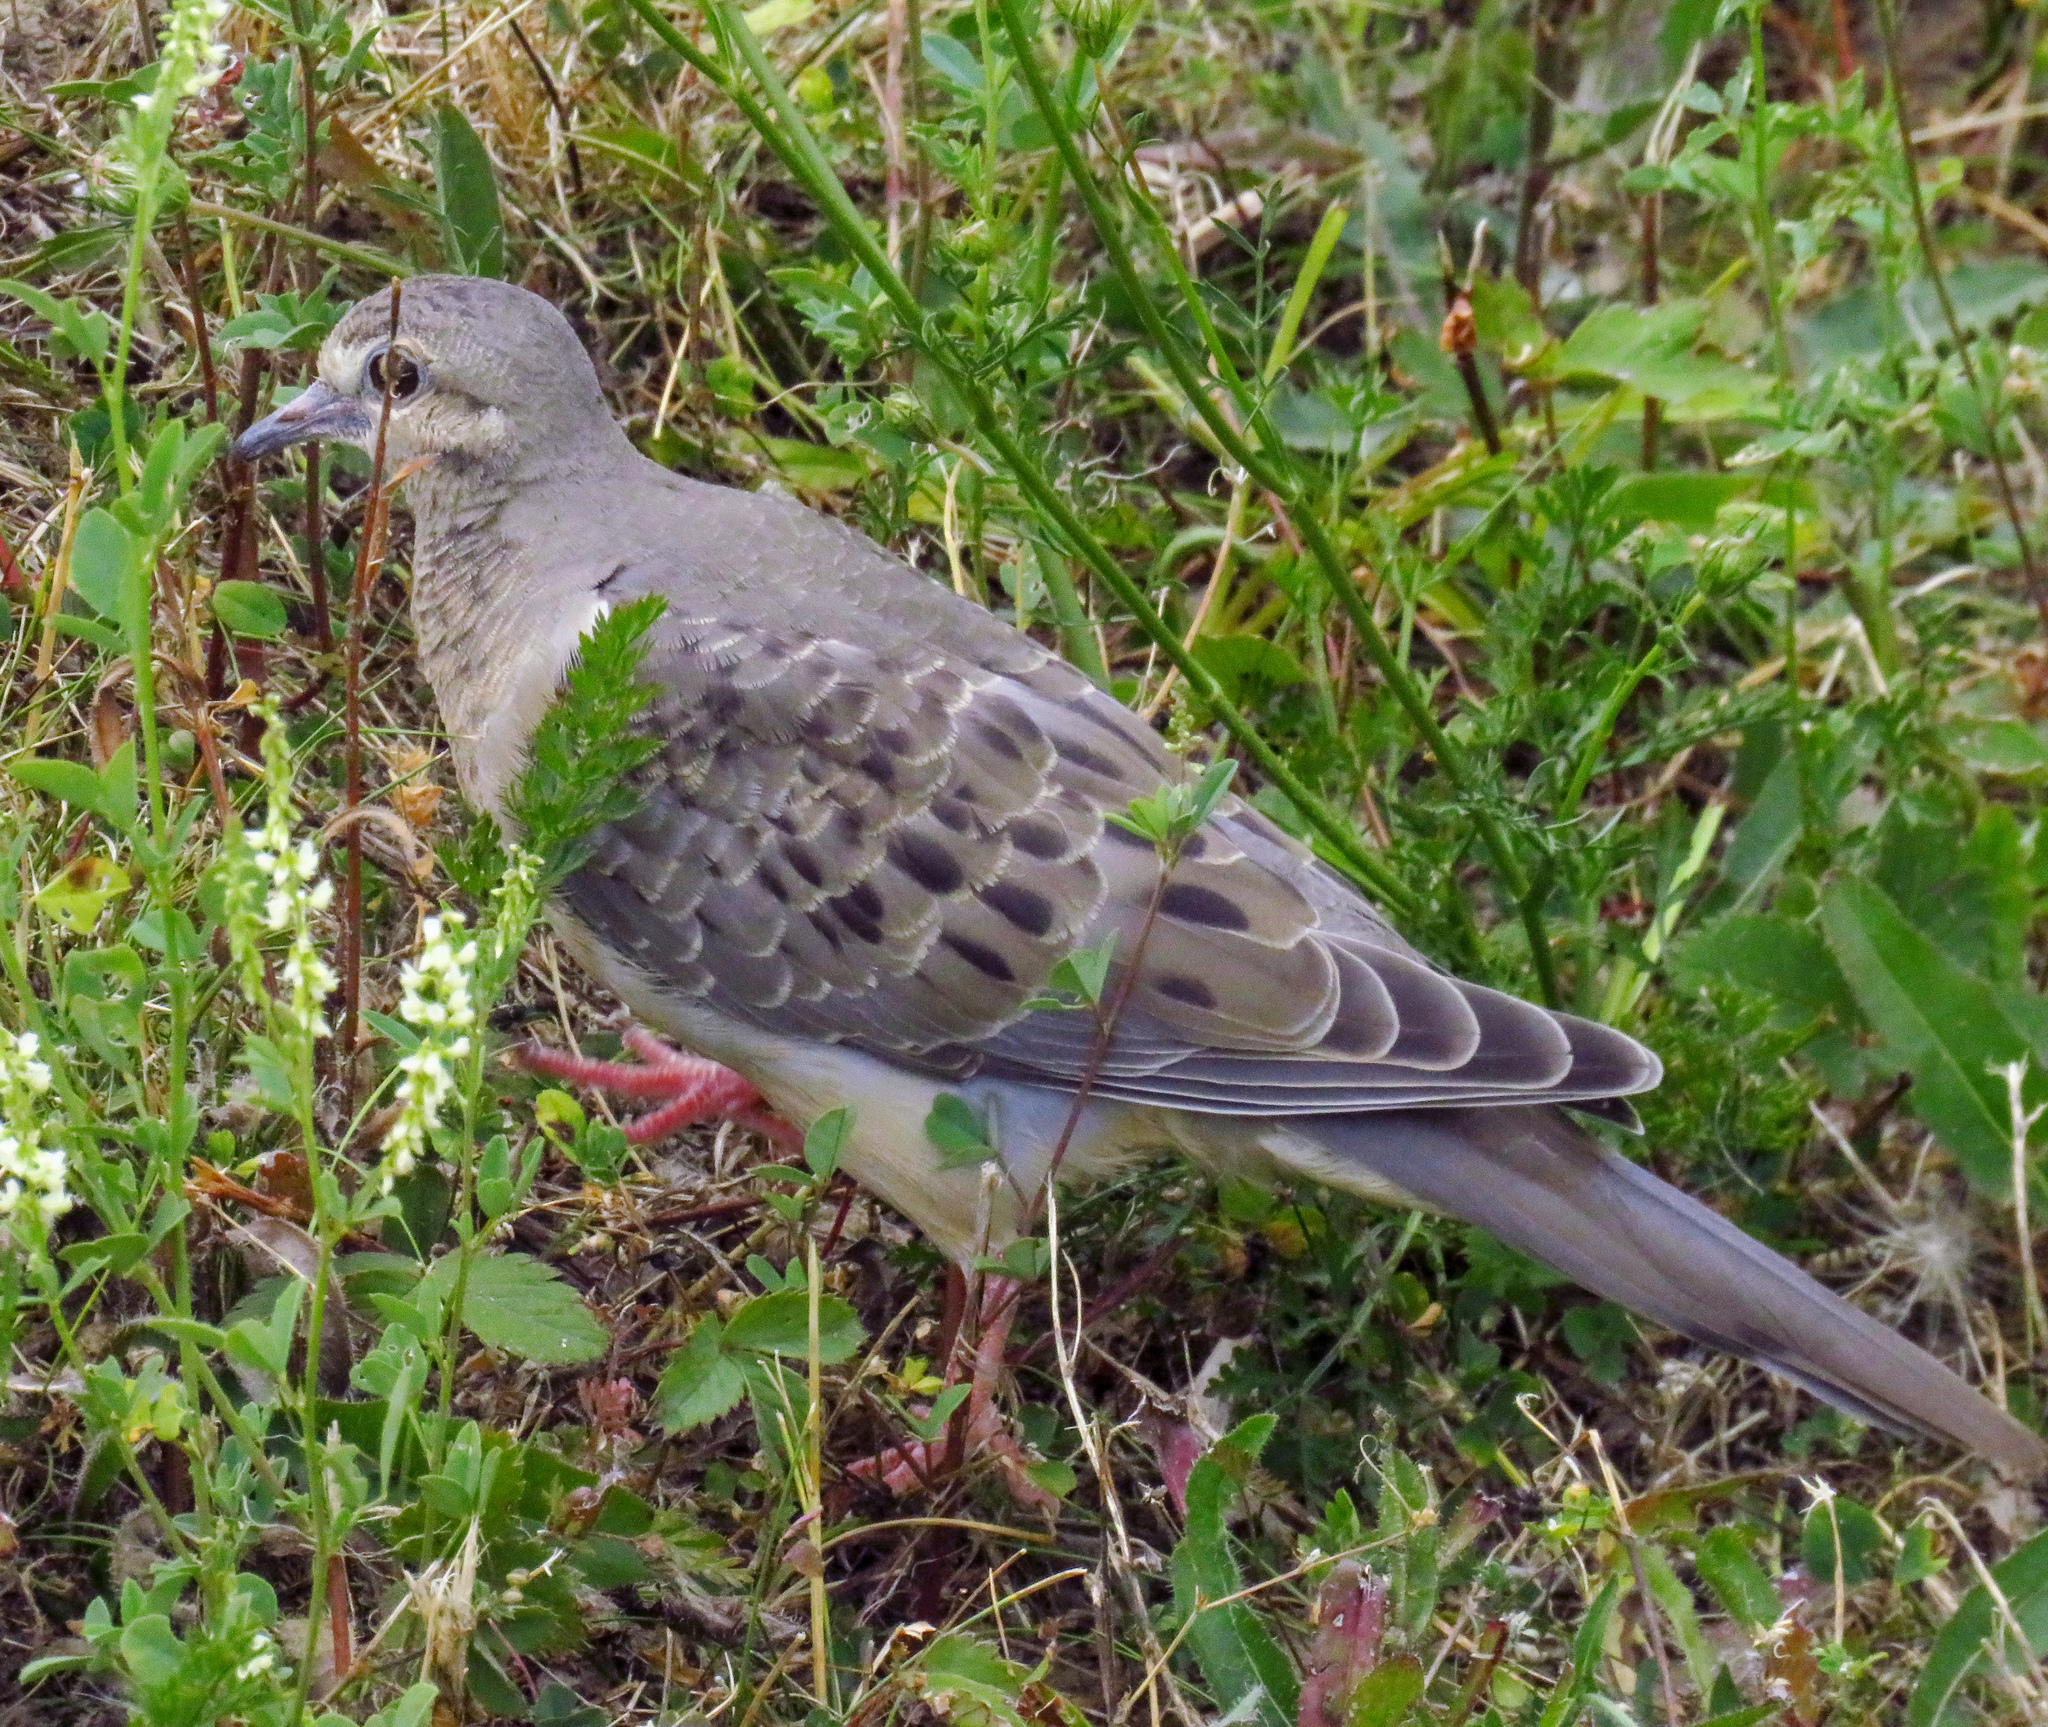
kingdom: Animalia
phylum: Chordata
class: Aves
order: Columbiformes
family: Columbidae
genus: Zenaida
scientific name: Zenaida macroura
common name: Mourning dove
